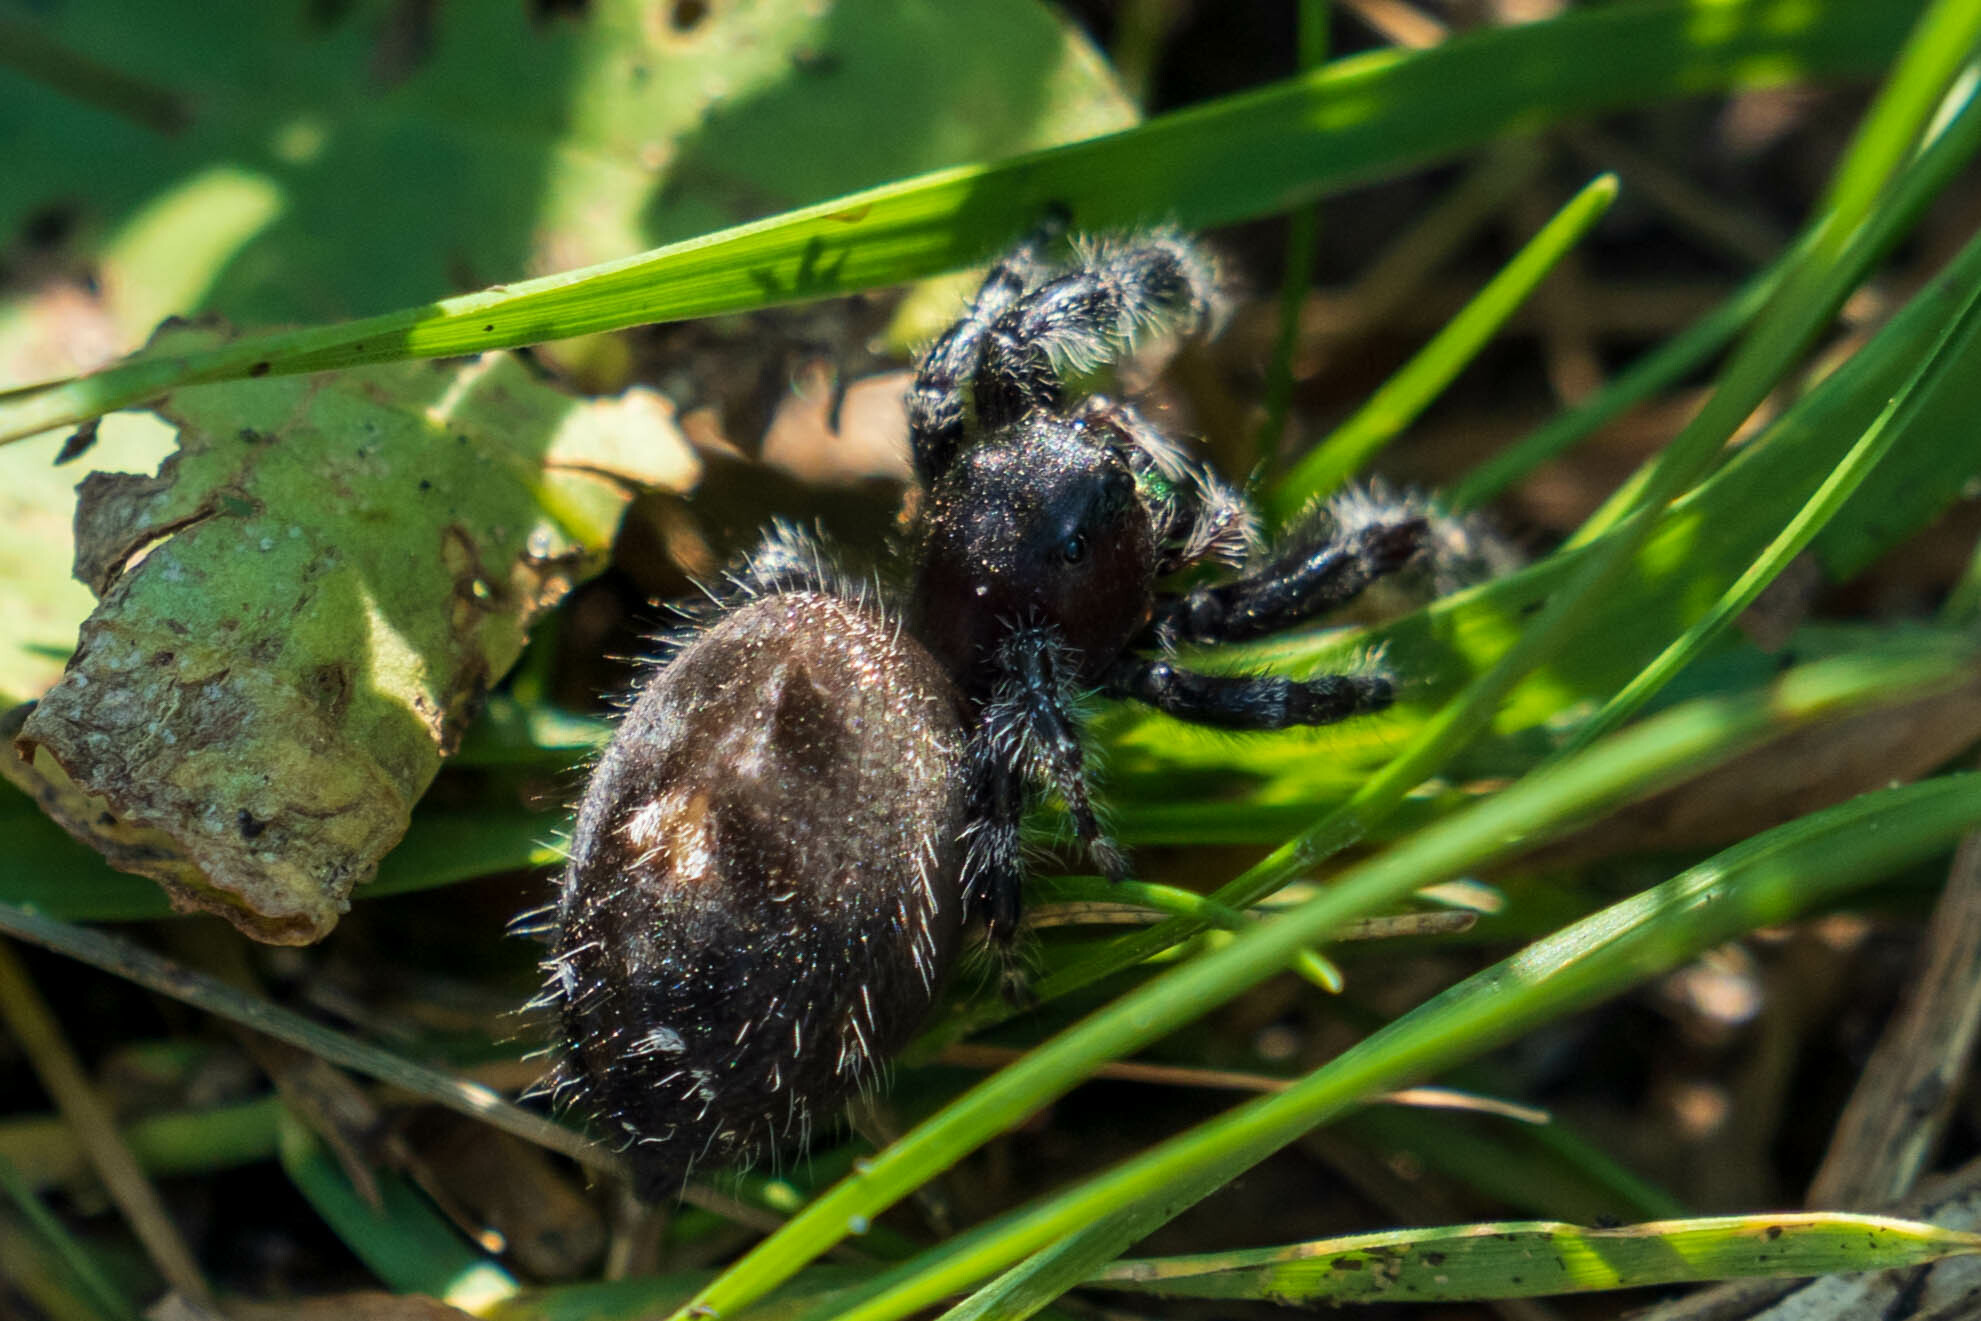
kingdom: Animalia
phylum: Arthropoda
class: Arachnida
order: Araneae
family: Salticidae
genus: Phidippus
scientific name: Phidippus audax
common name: Bold jumper
